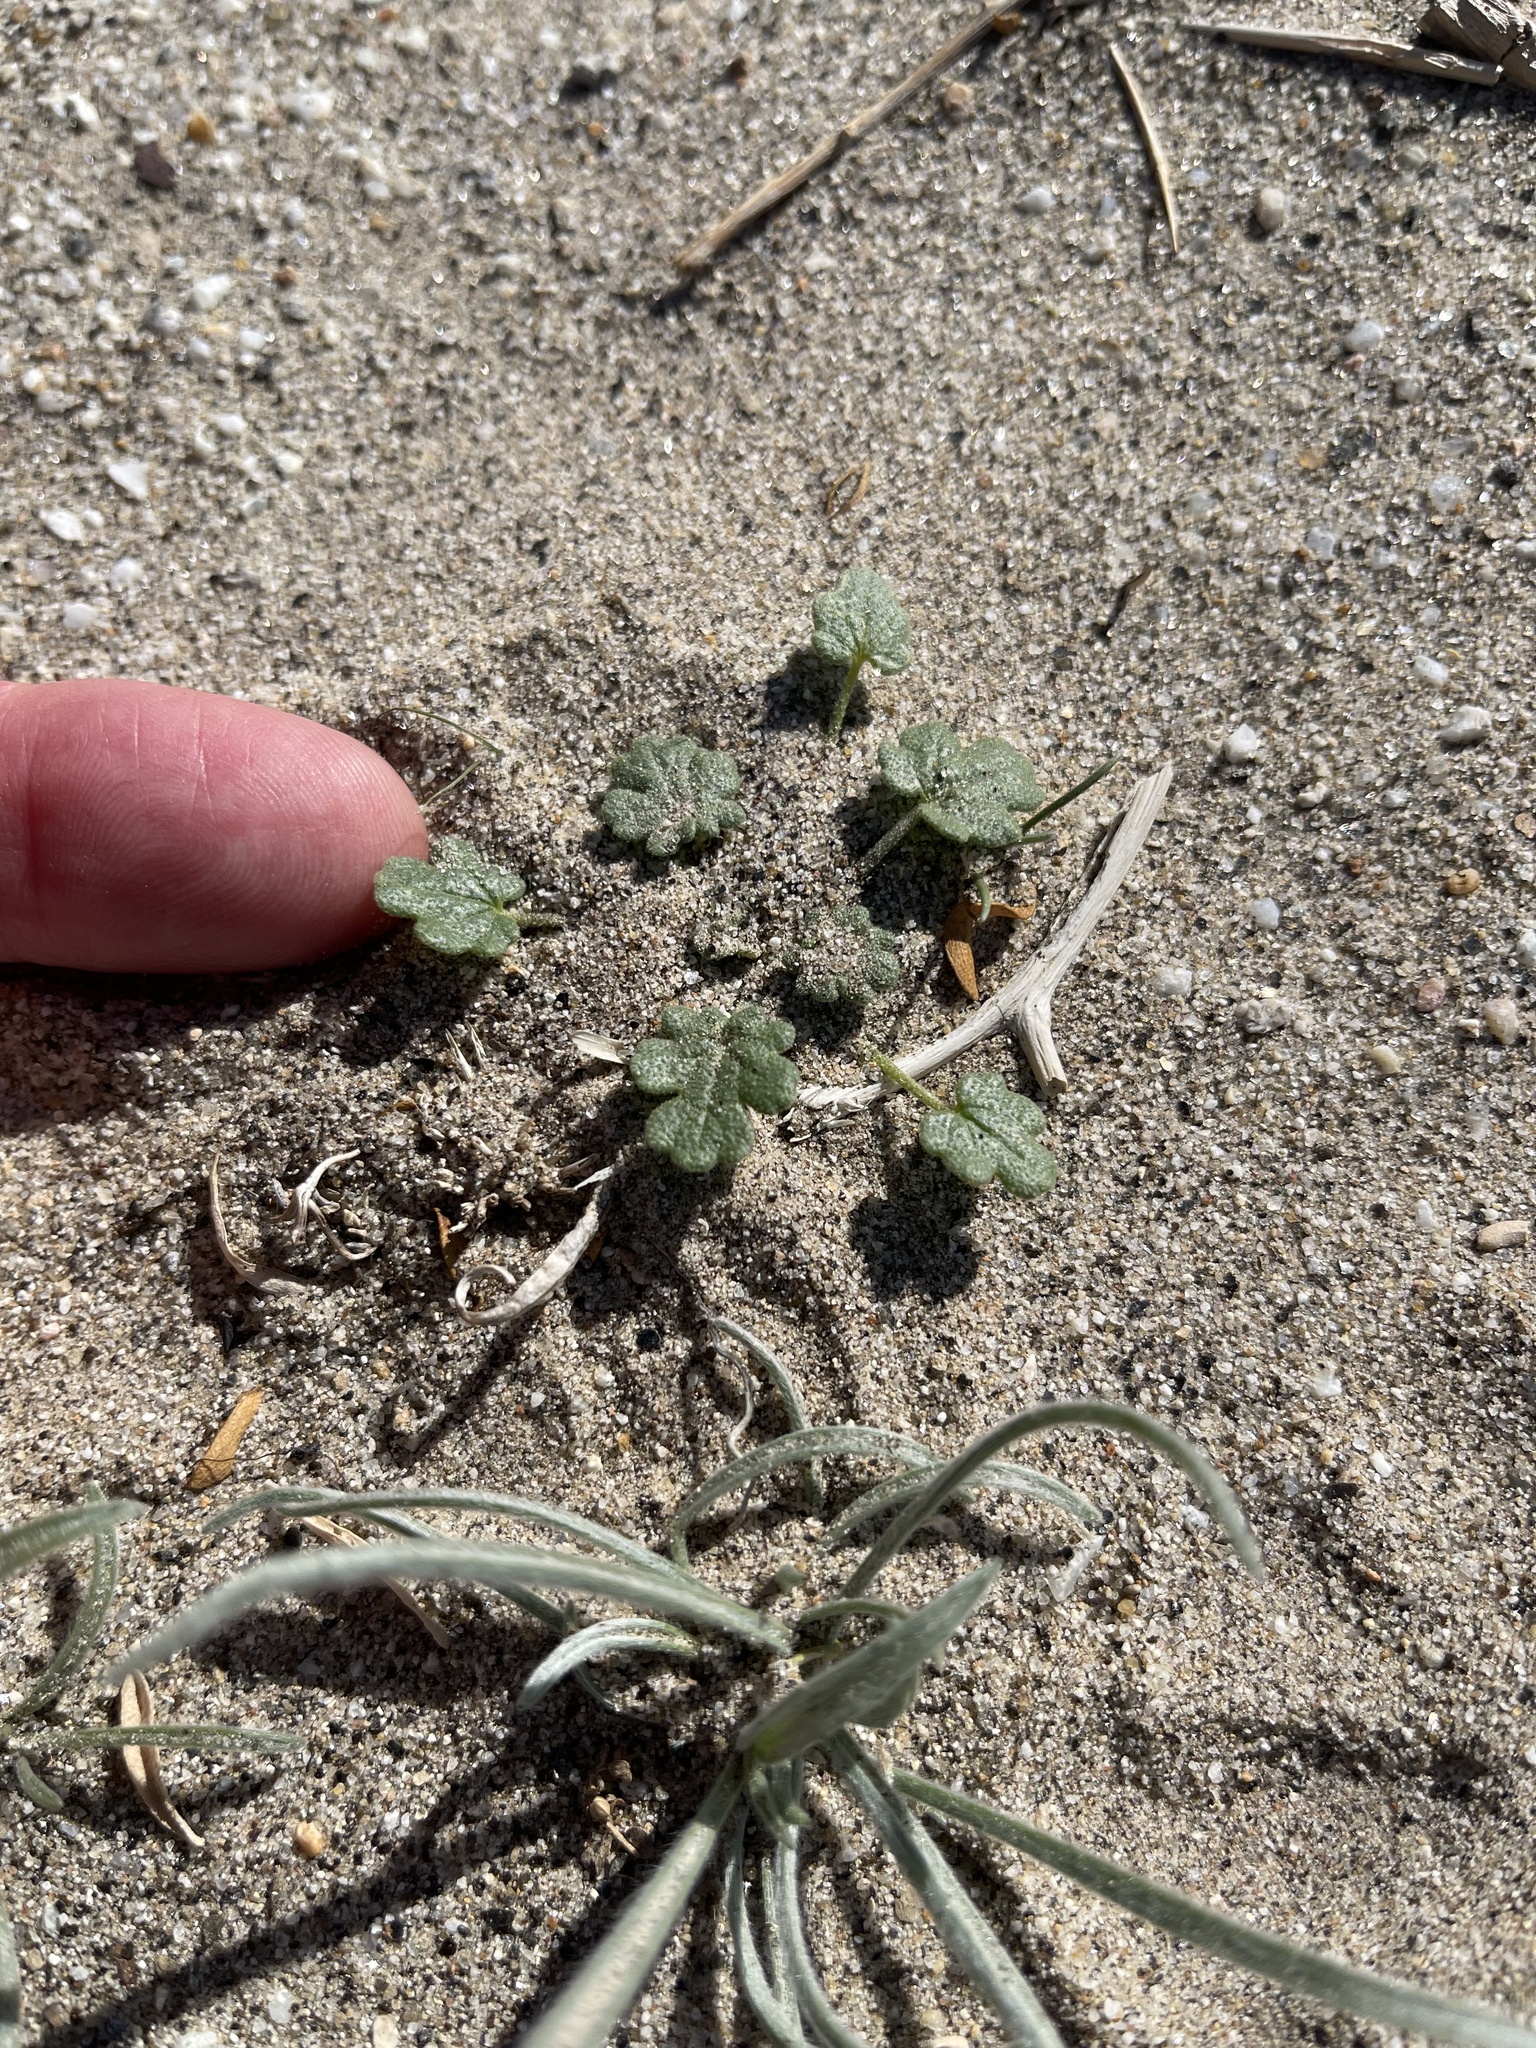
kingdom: Plantae
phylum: Tracheophyta
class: Magnoliopsida
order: Lamiales
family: Plantaginaceae
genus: Plantago
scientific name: Plantago ovata
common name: Blond plantain
